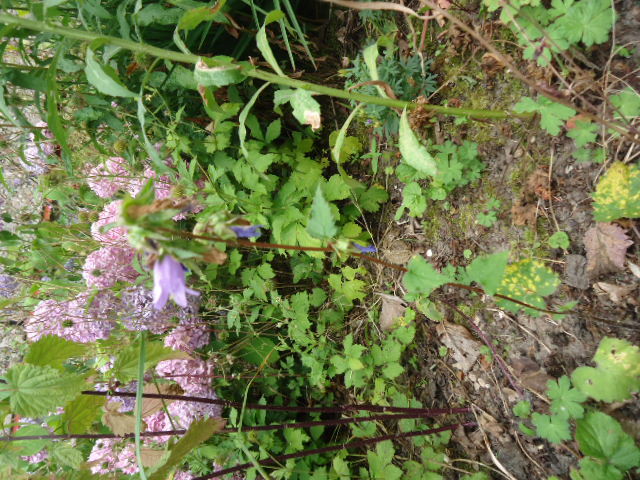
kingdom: Fungi
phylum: Basidiomycota
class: Pucciniomycetes
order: Pucciniales
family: Coleosporiaceae
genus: Coleosporium
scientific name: Coleosporium campanulae
